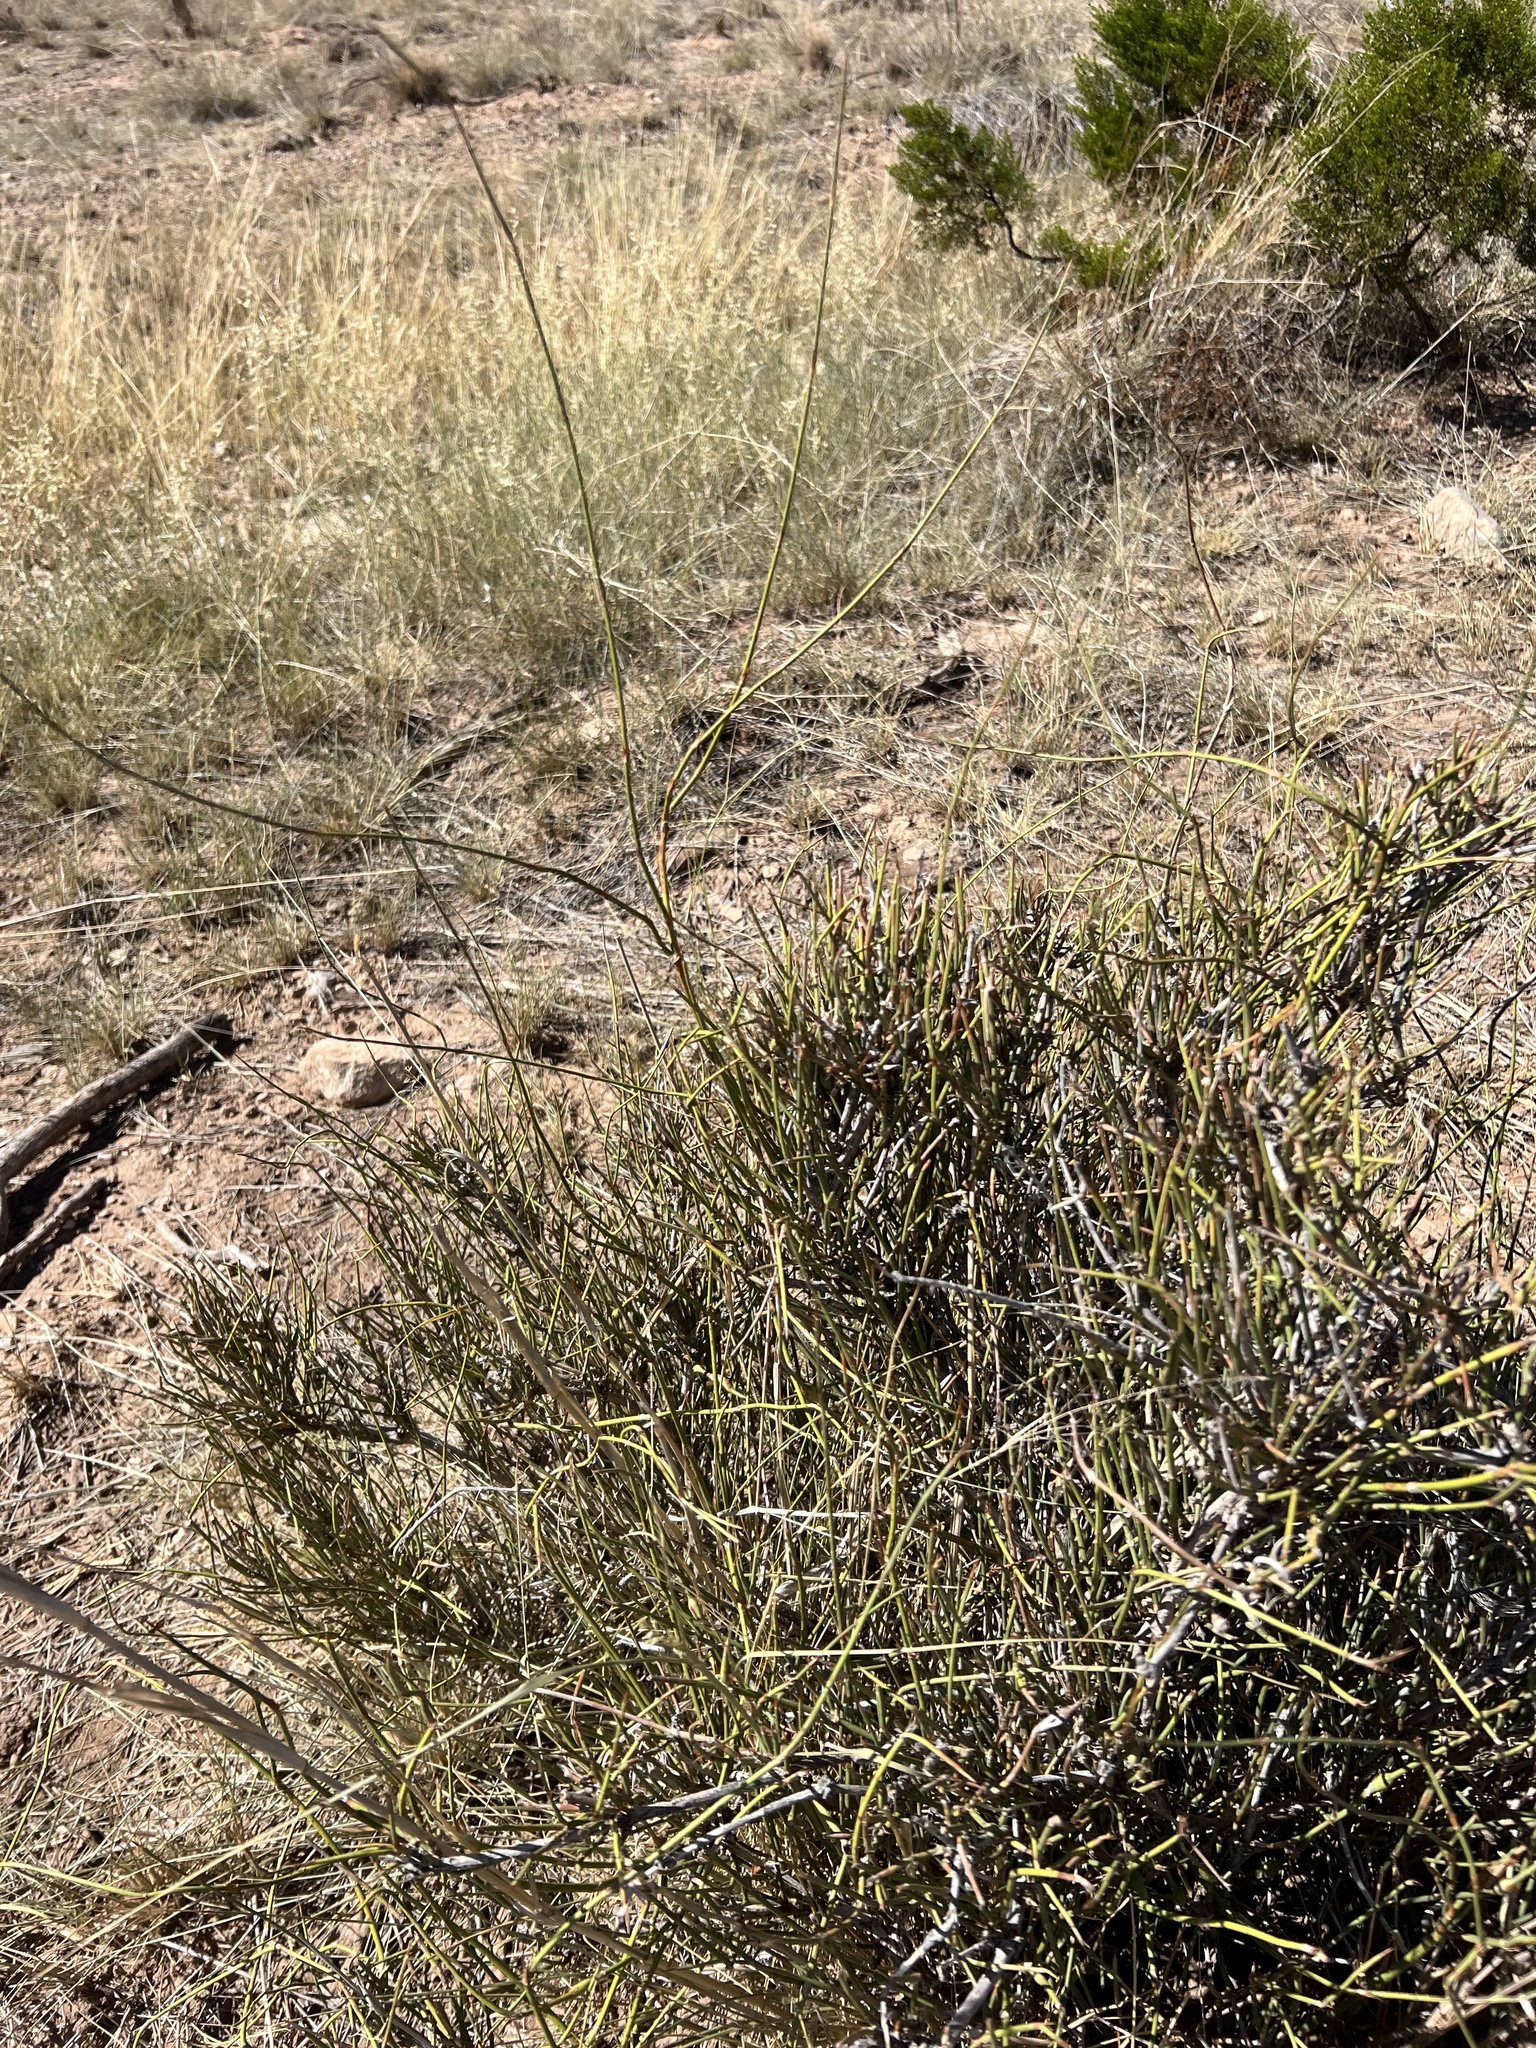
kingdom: Plantae
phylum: Tracheophyta
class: Gnetopsida
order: Ephedrales
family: Ephedraceae
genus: Ephedra
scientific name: Ephedra trifurca
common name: Mexican-tea
